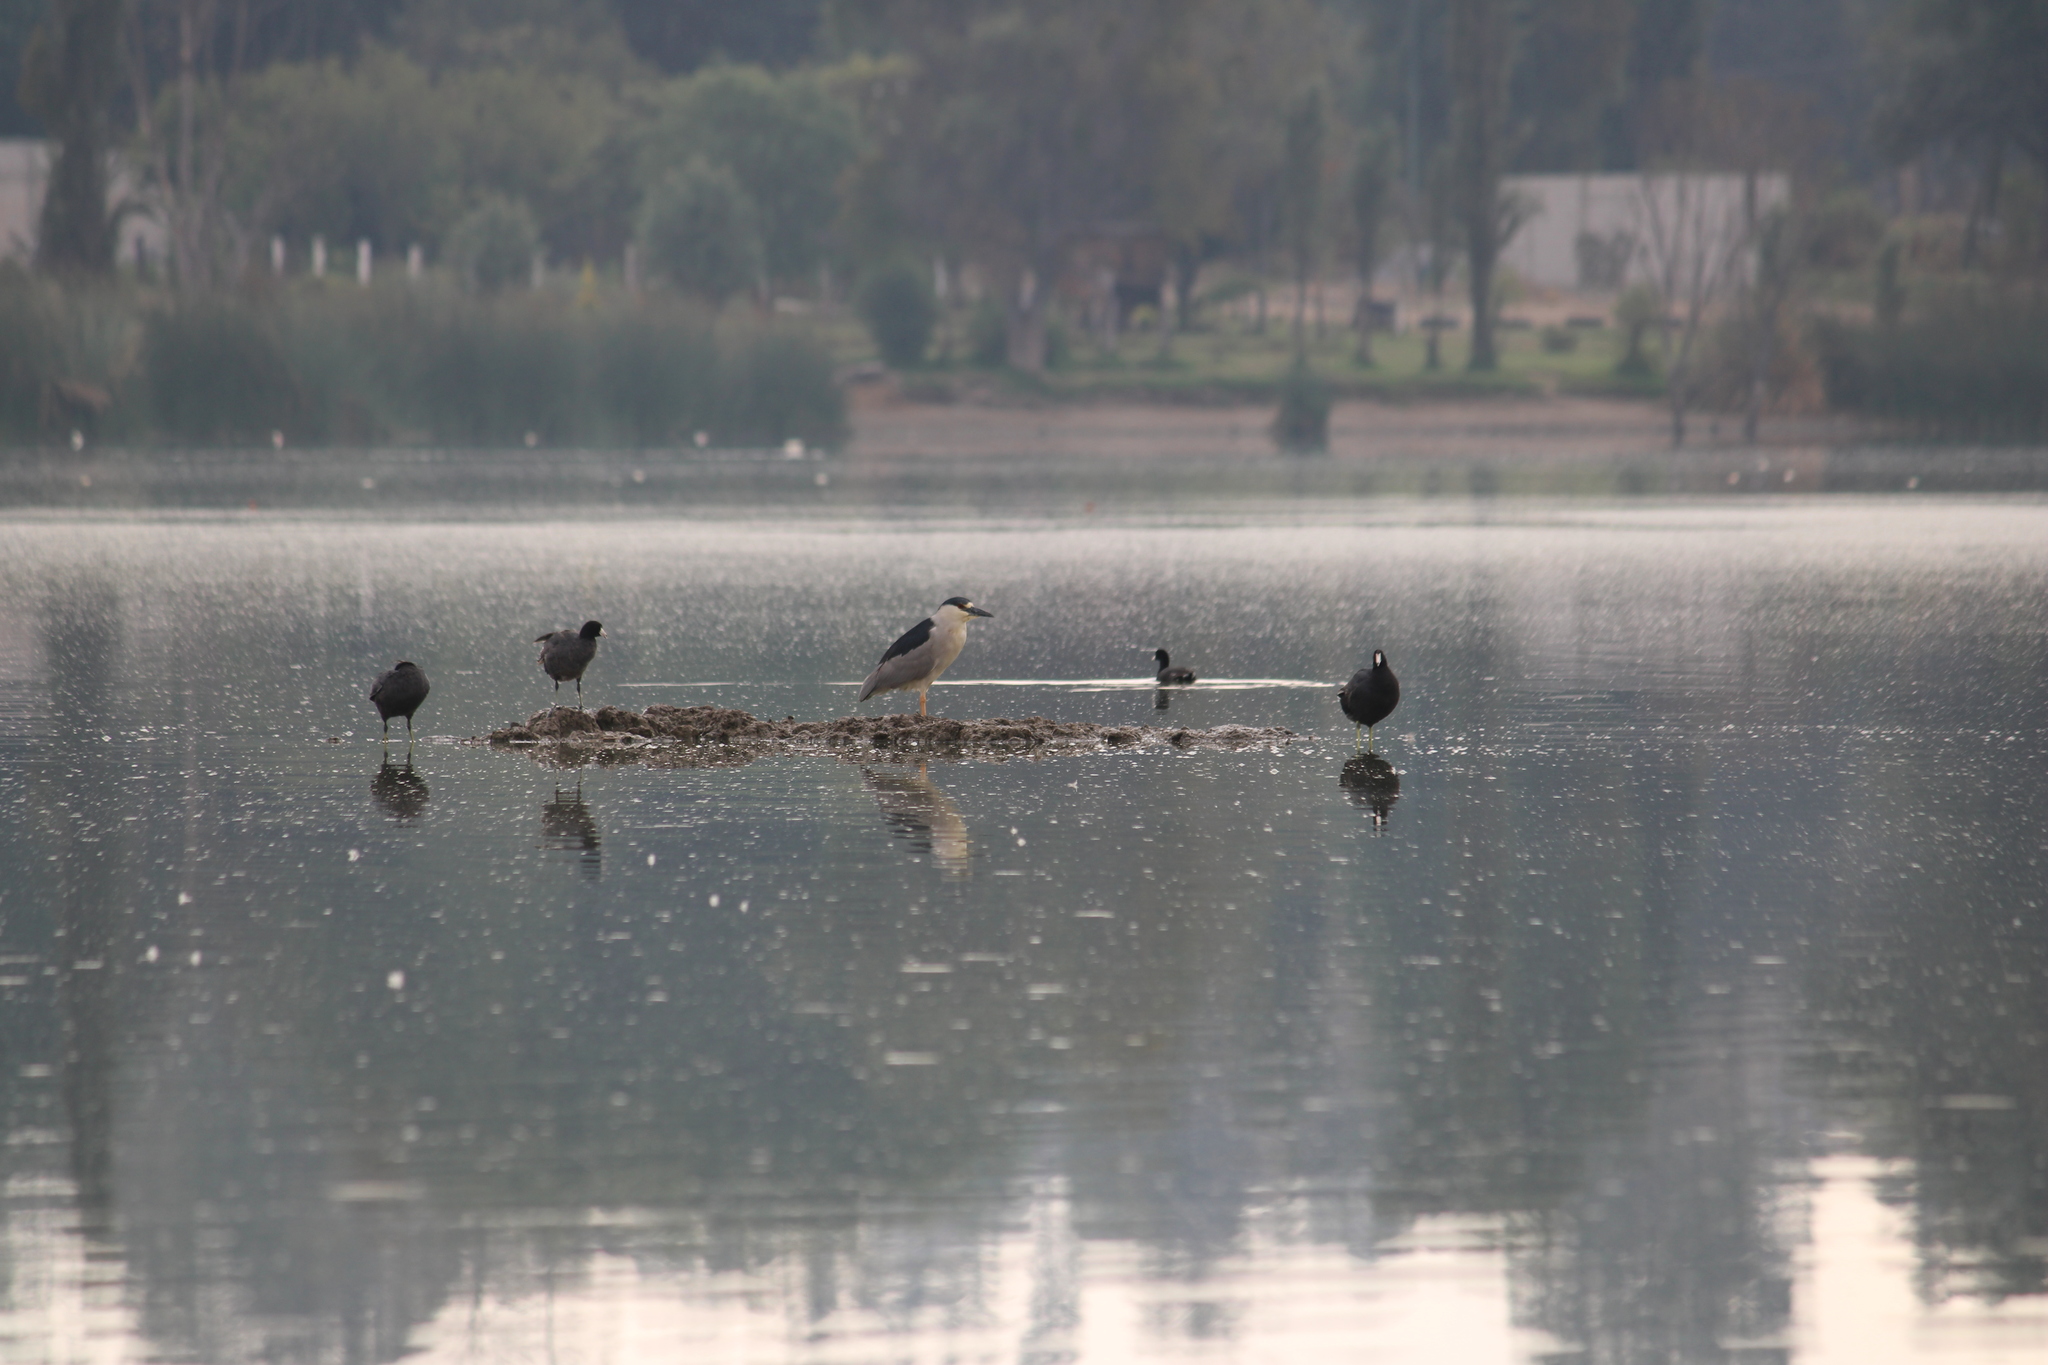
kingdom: Animalia
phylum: Chordata
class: Aves
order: Pelecaniformes
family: Ardeidae
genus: Nycticorax
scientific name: Nycticorax nycticorax
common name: Black-crowned night heron
